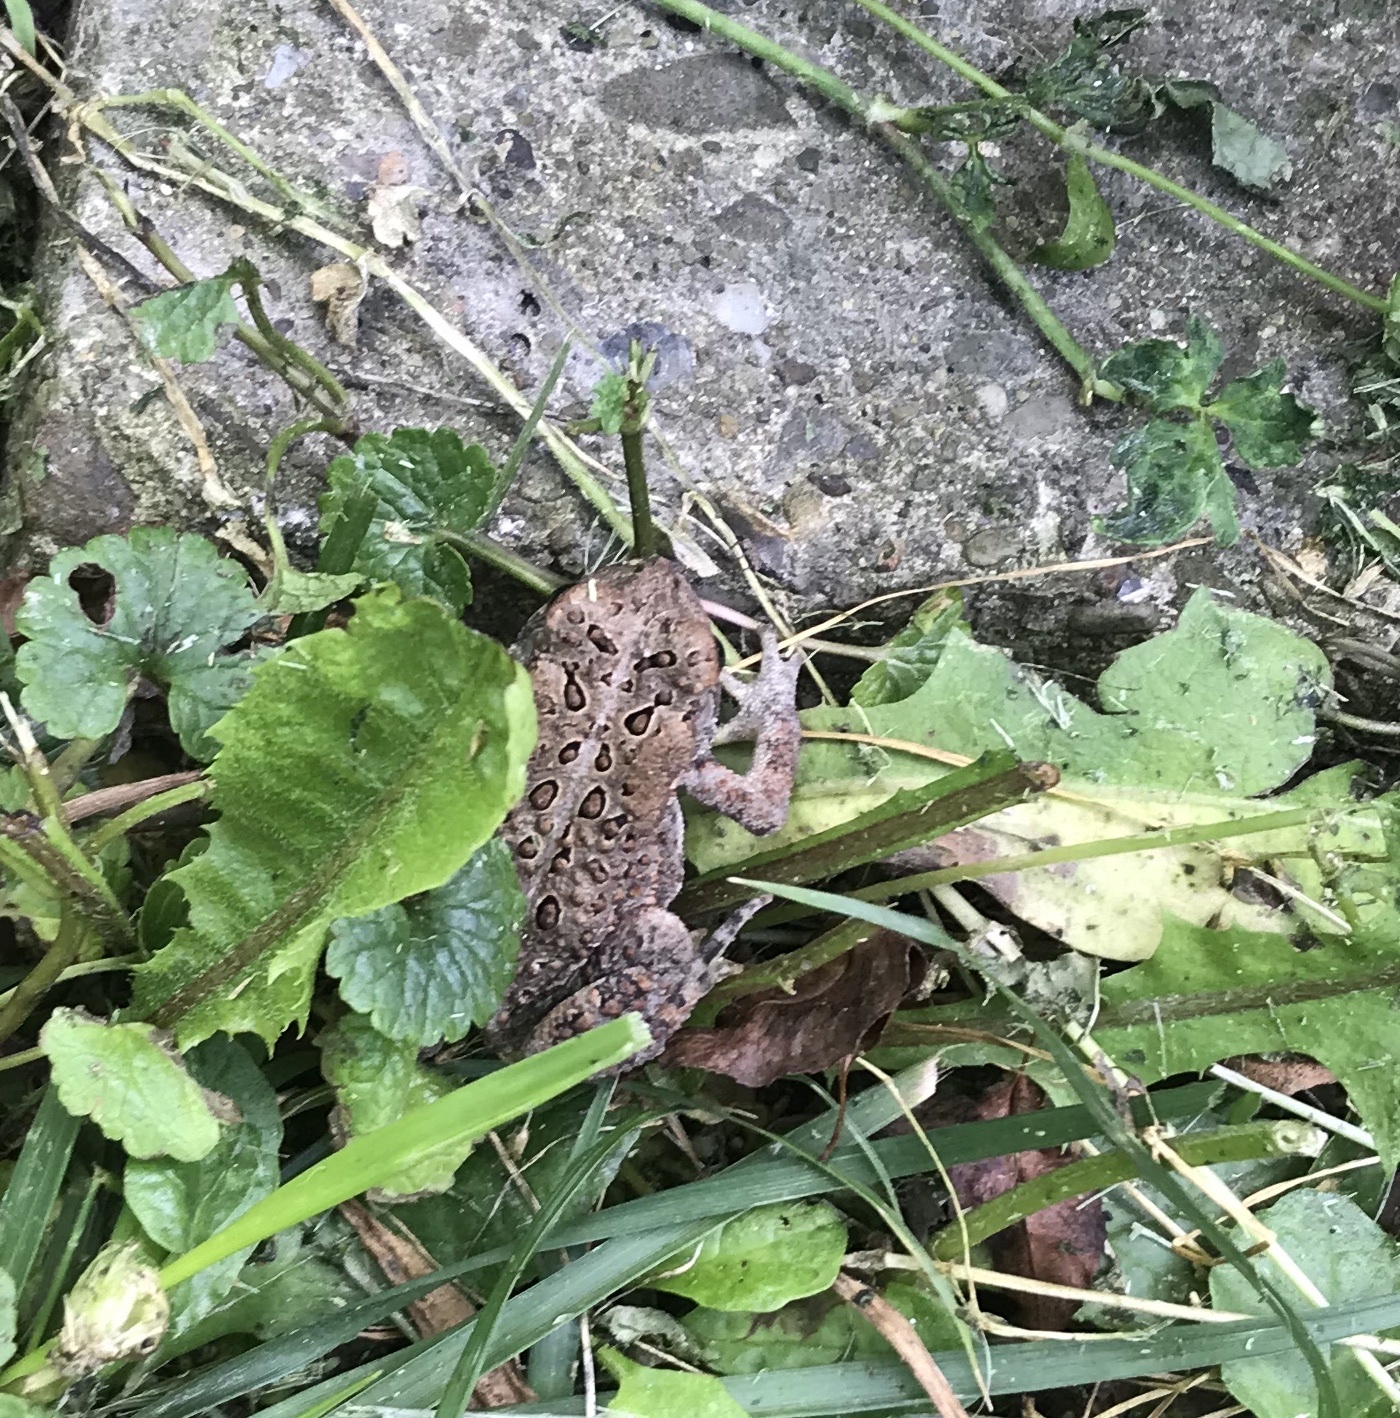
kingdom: Animalia
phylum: Chordata
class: Amphibia
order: Anura
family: Bufonidae
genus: Anaxyrus
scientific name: Anaxyrus americanus
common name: American toad
